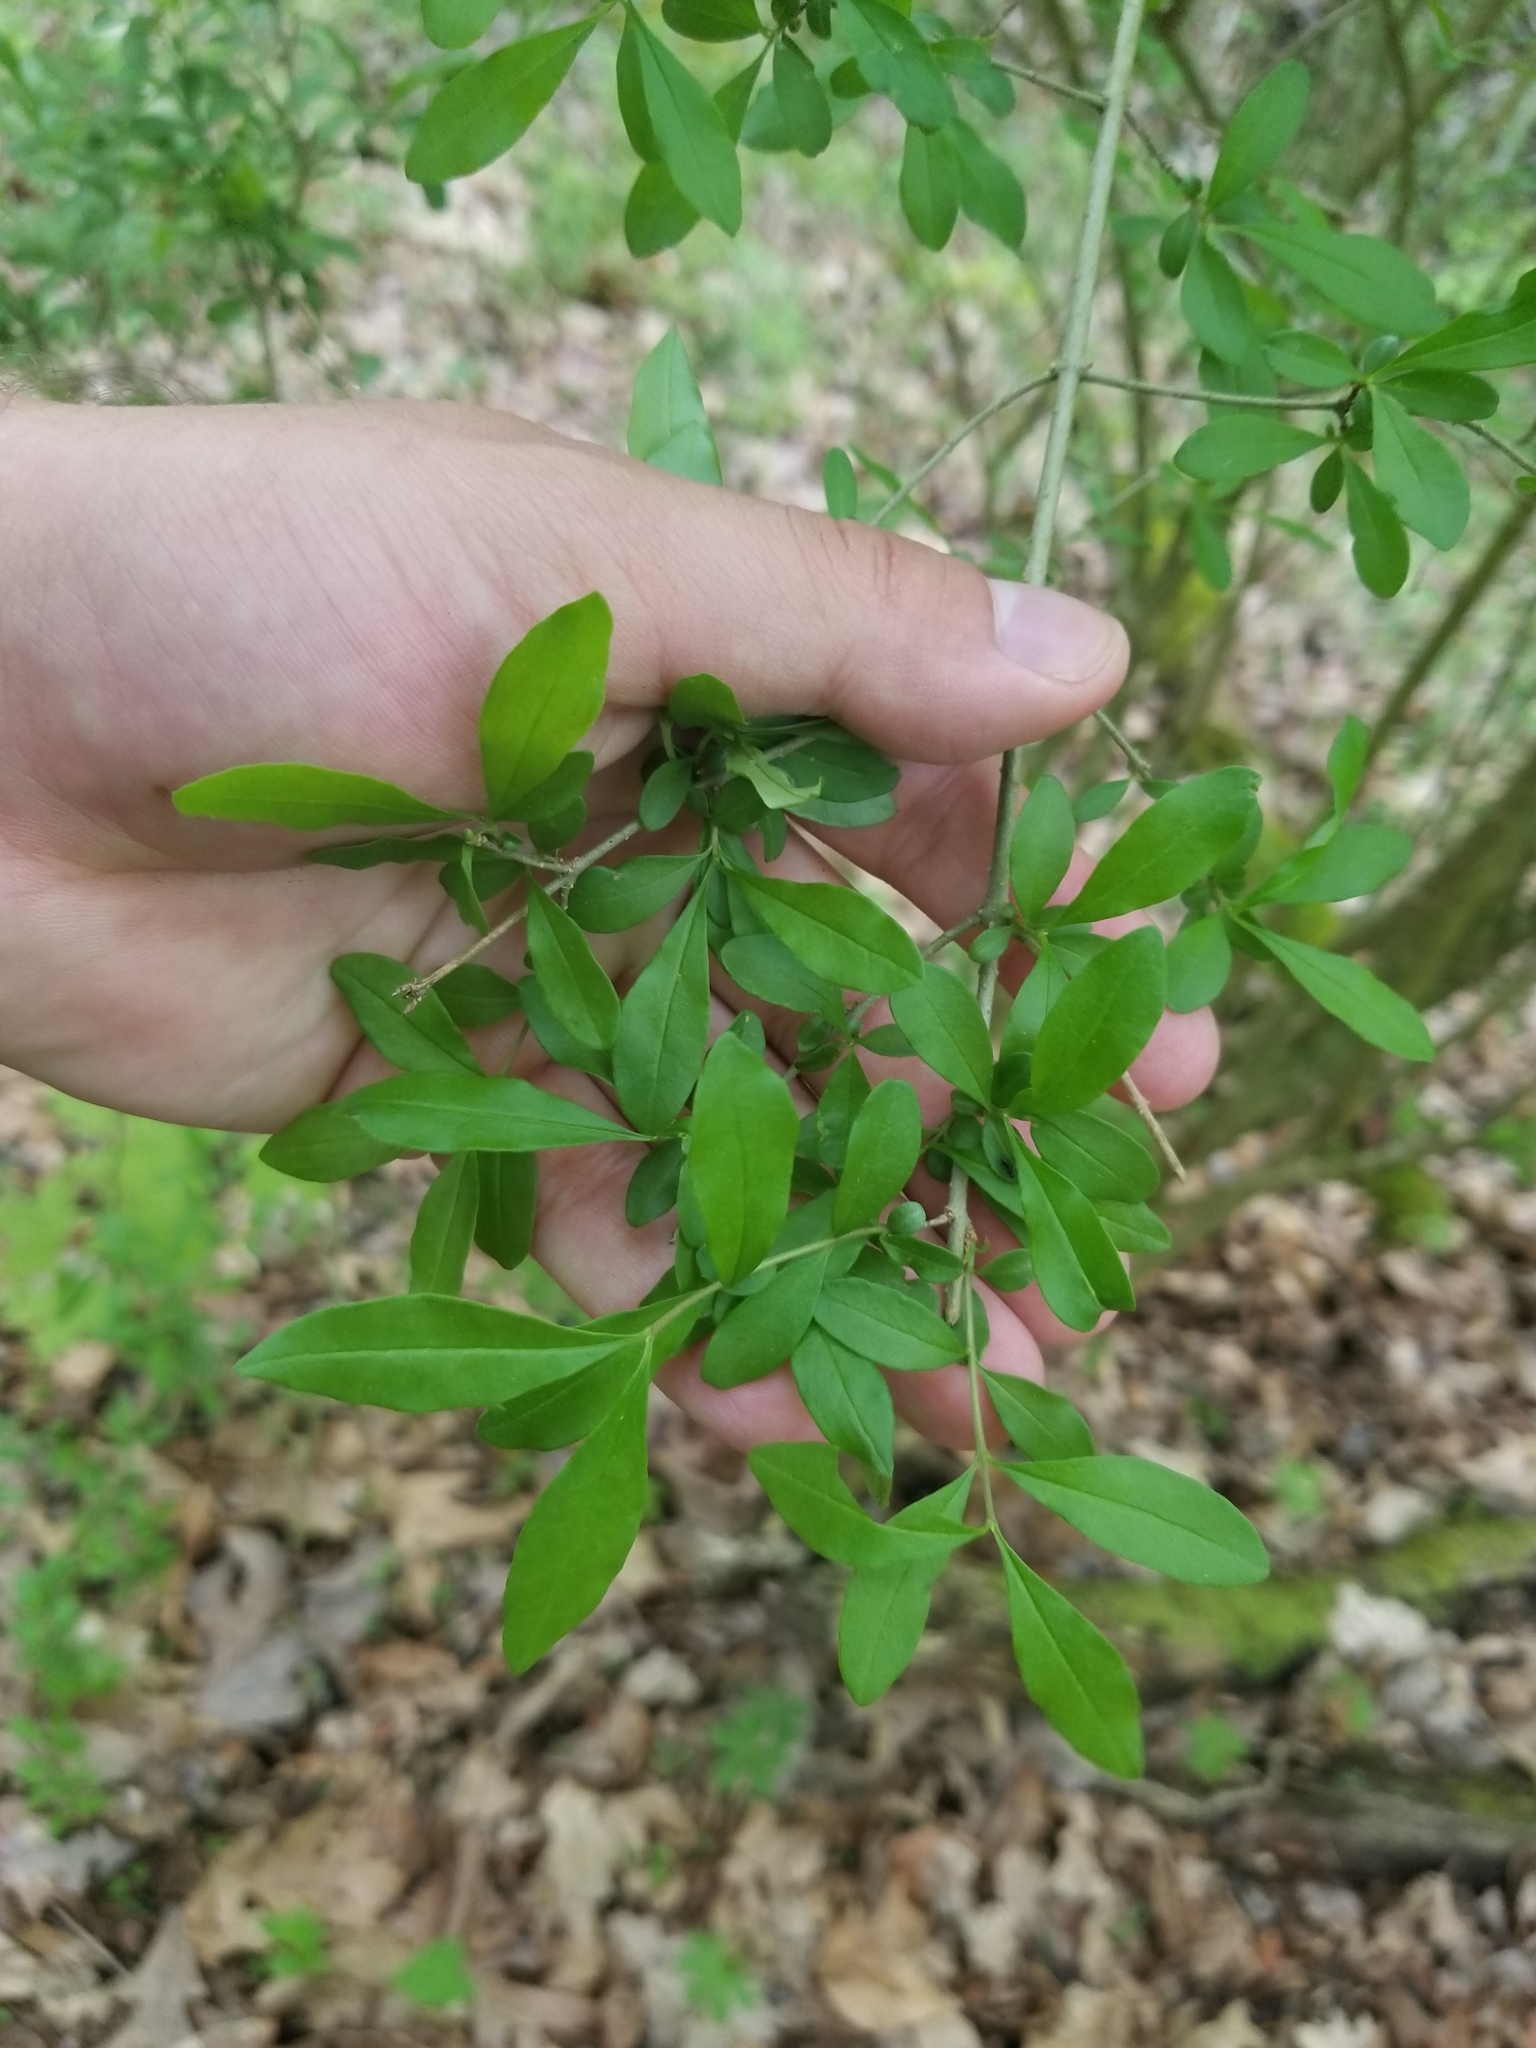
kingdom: Plantae
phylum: Tracheophyta
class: Magnoliopsida
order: Lamiales
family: Oleaceae
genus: Ligustrum
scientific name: Ligustrum obtusifolium
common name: Border privet
